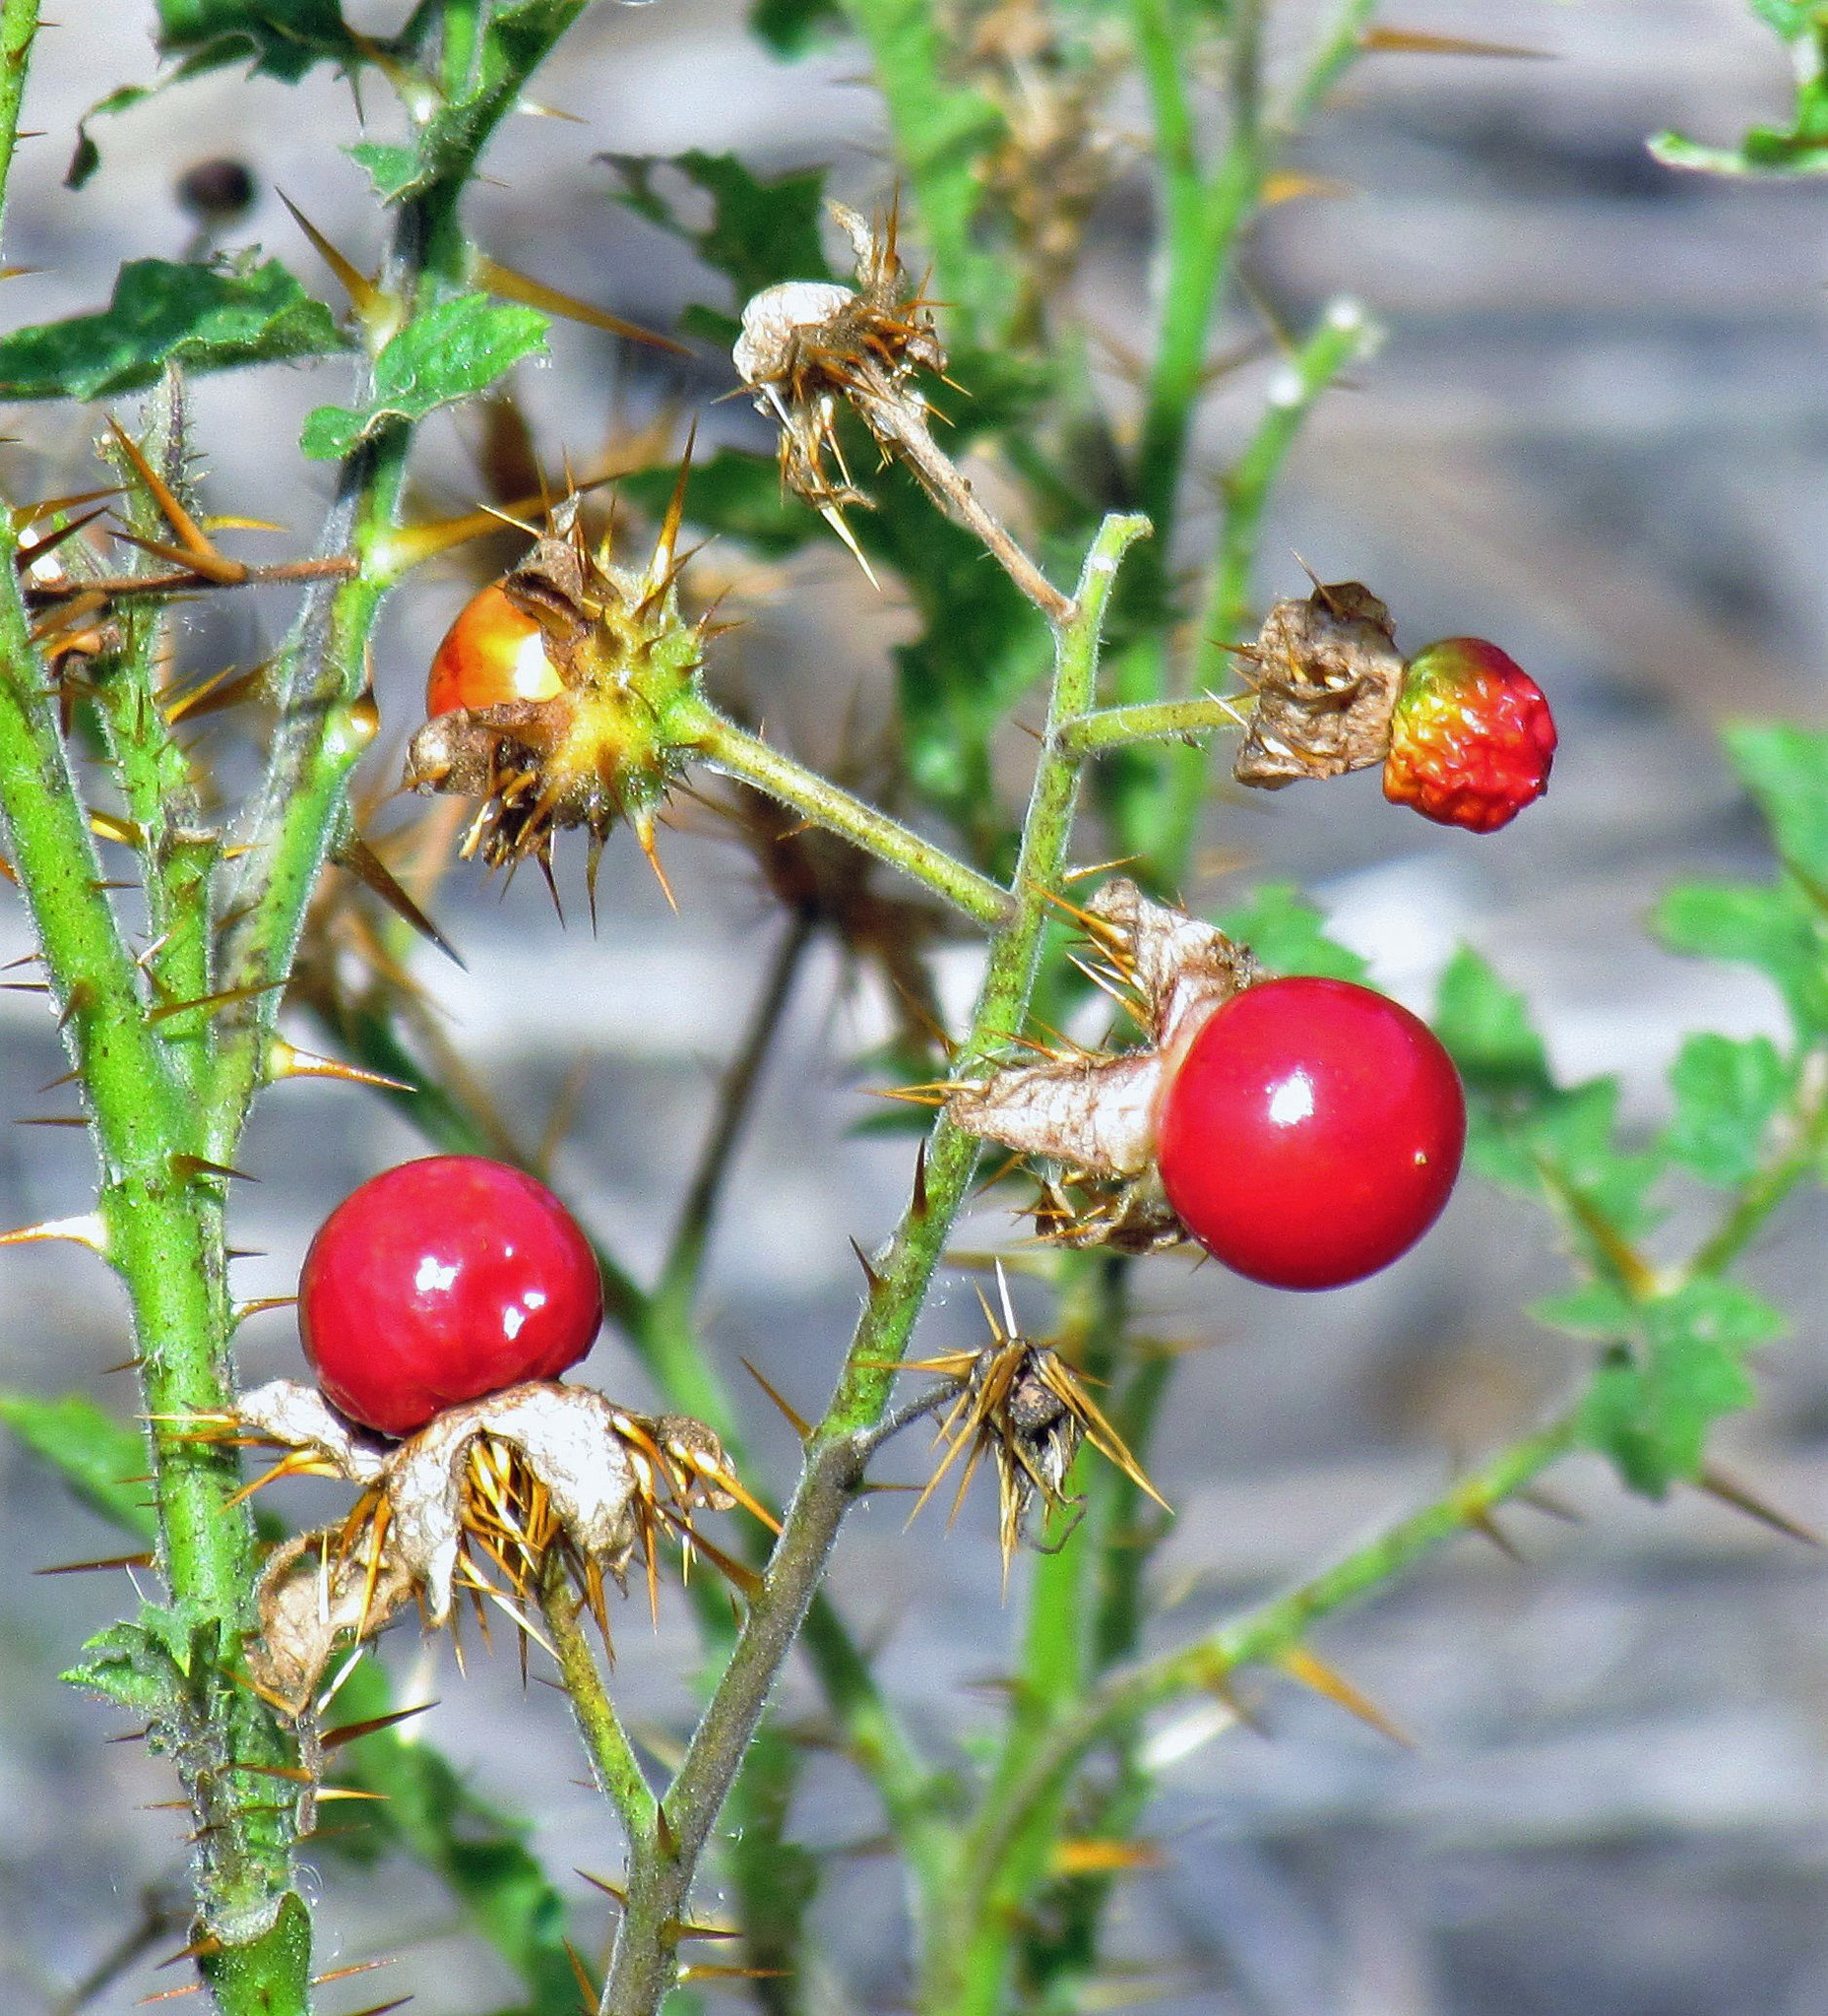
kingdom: Plantae
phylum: Tracheophyta
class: Magnoliopsida
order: Solanales
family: Solanaceae
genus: Solanum
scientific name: Solanum sisymbriifolium
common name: Red buffalo-bur
